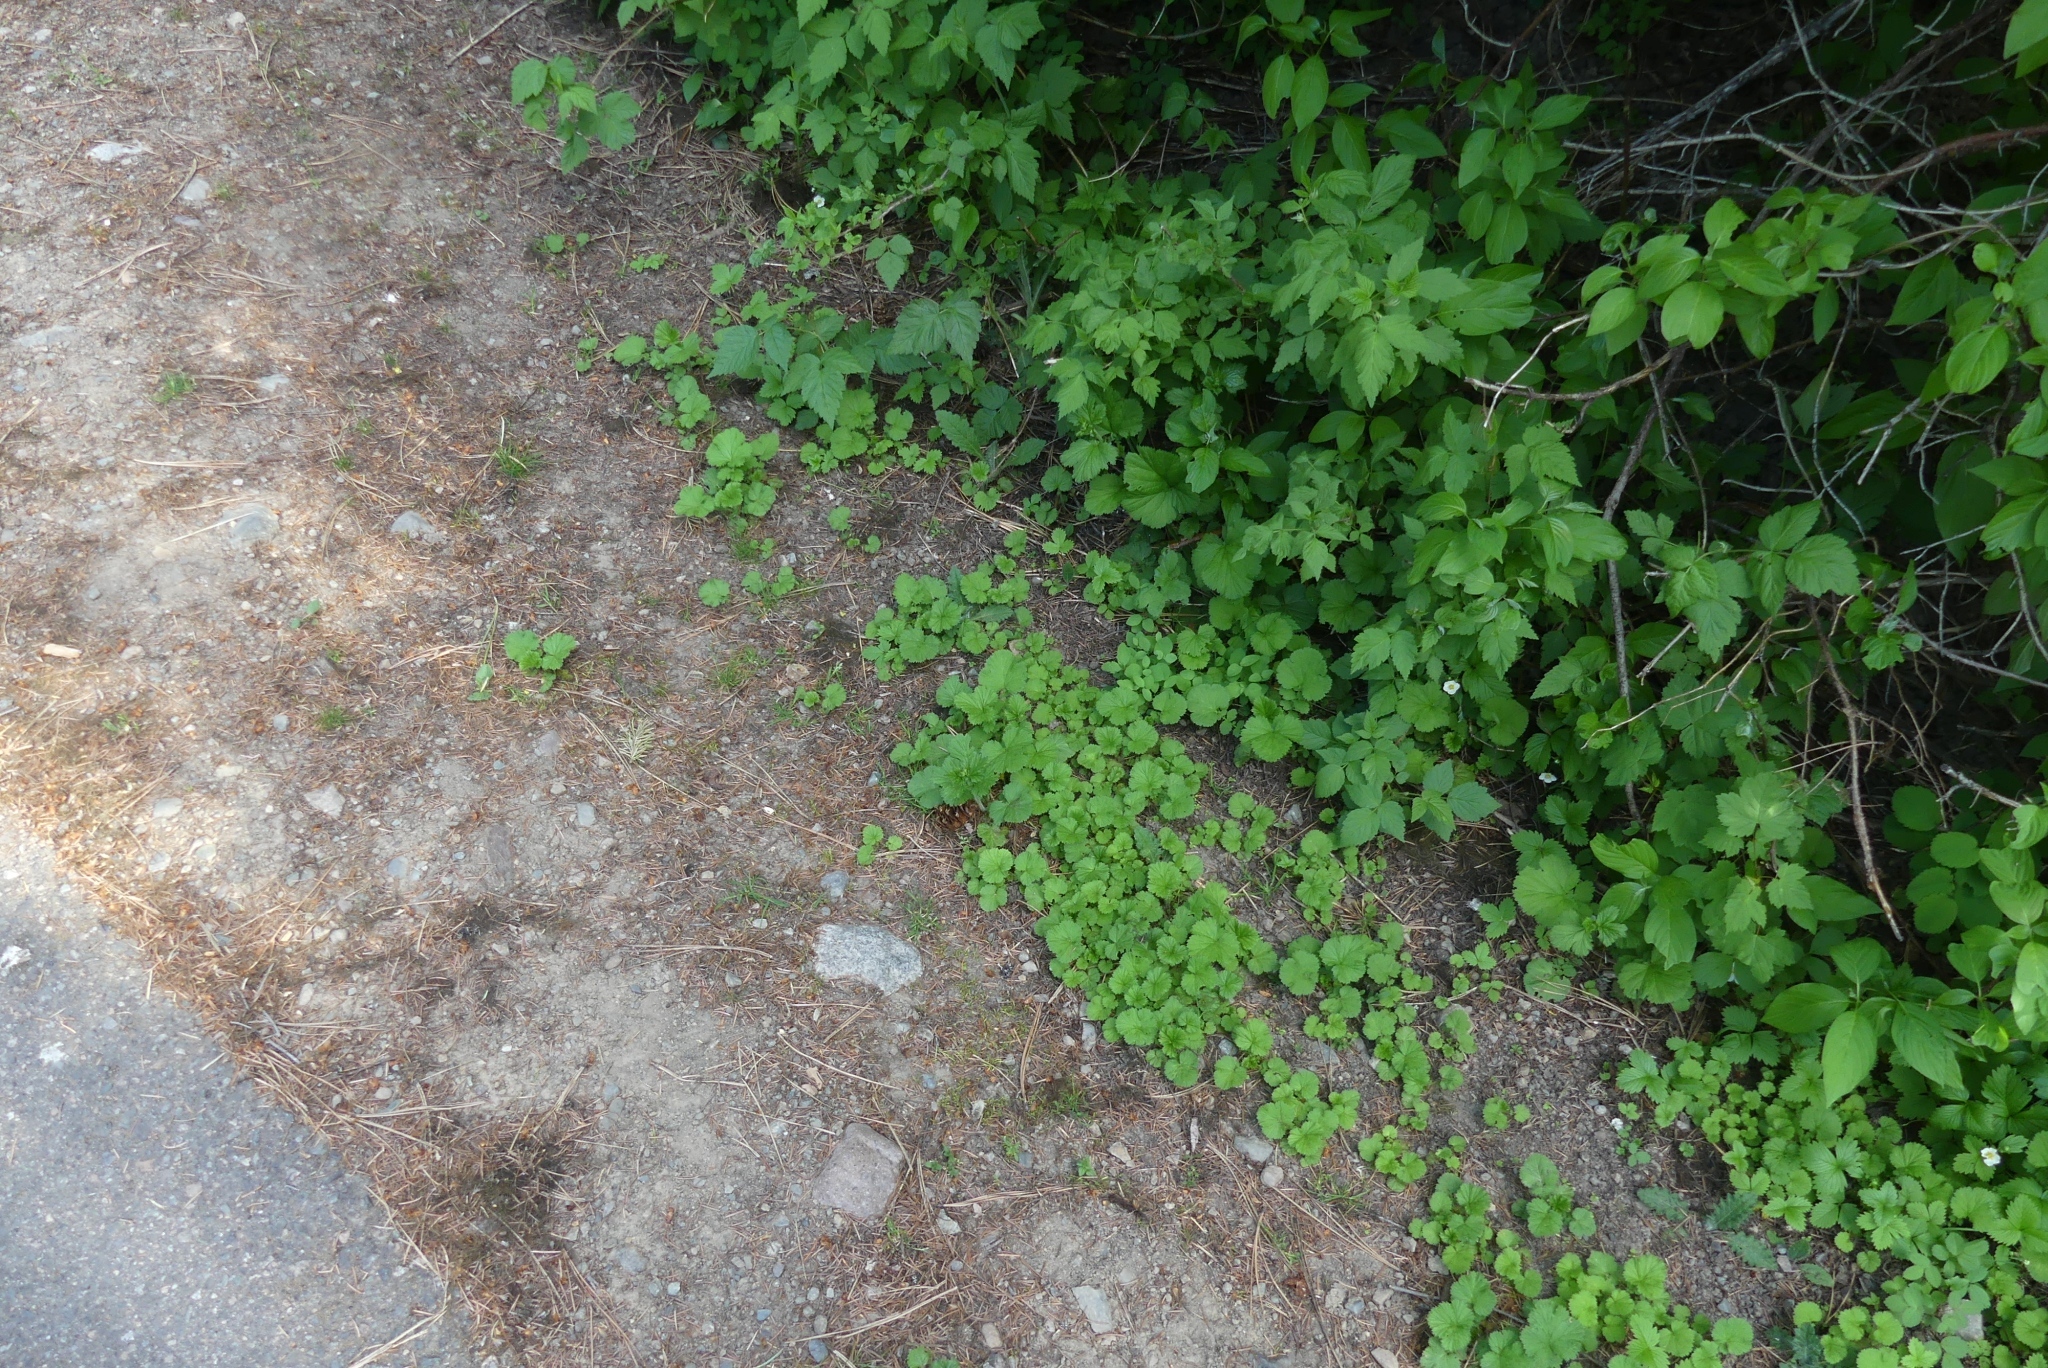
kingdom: Plantae
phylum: Tracheophyta
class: Magnoliopsida
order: Rosales
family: Rosaceae
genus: Geum
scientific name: Geum macrophyllum
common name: Large-leaved avens
